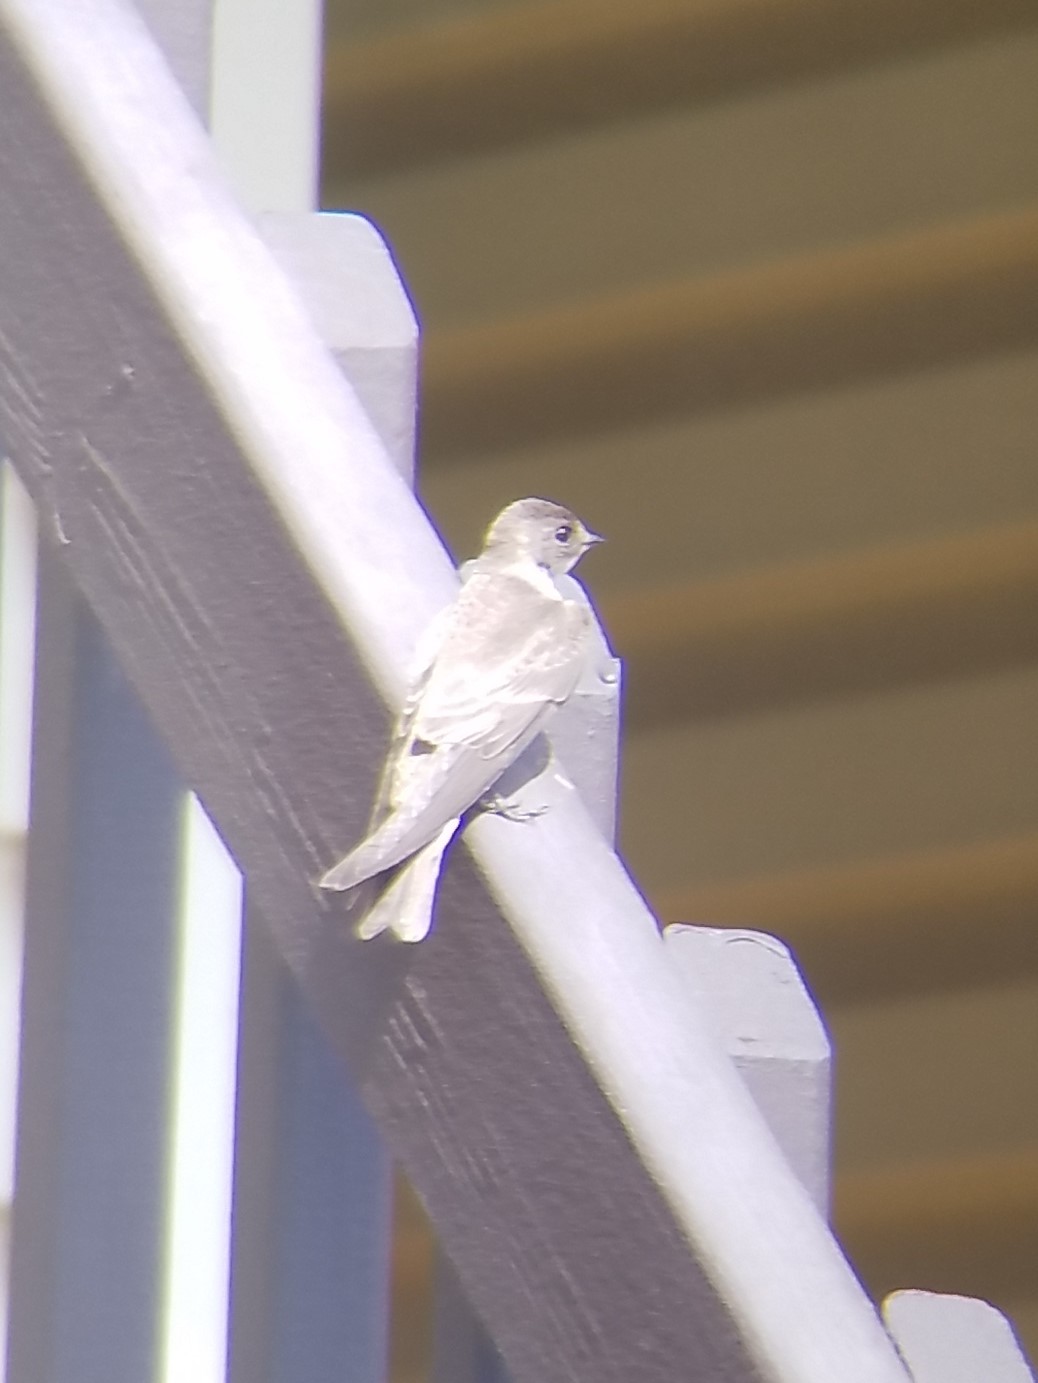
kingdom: Animalia
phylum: Chordata
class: Aves
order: Passeriformes
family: Hirundinidae
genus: Stelgidopteryx
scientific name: Stelgidopteryx serripennis
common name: Northern rough-winged swallow
